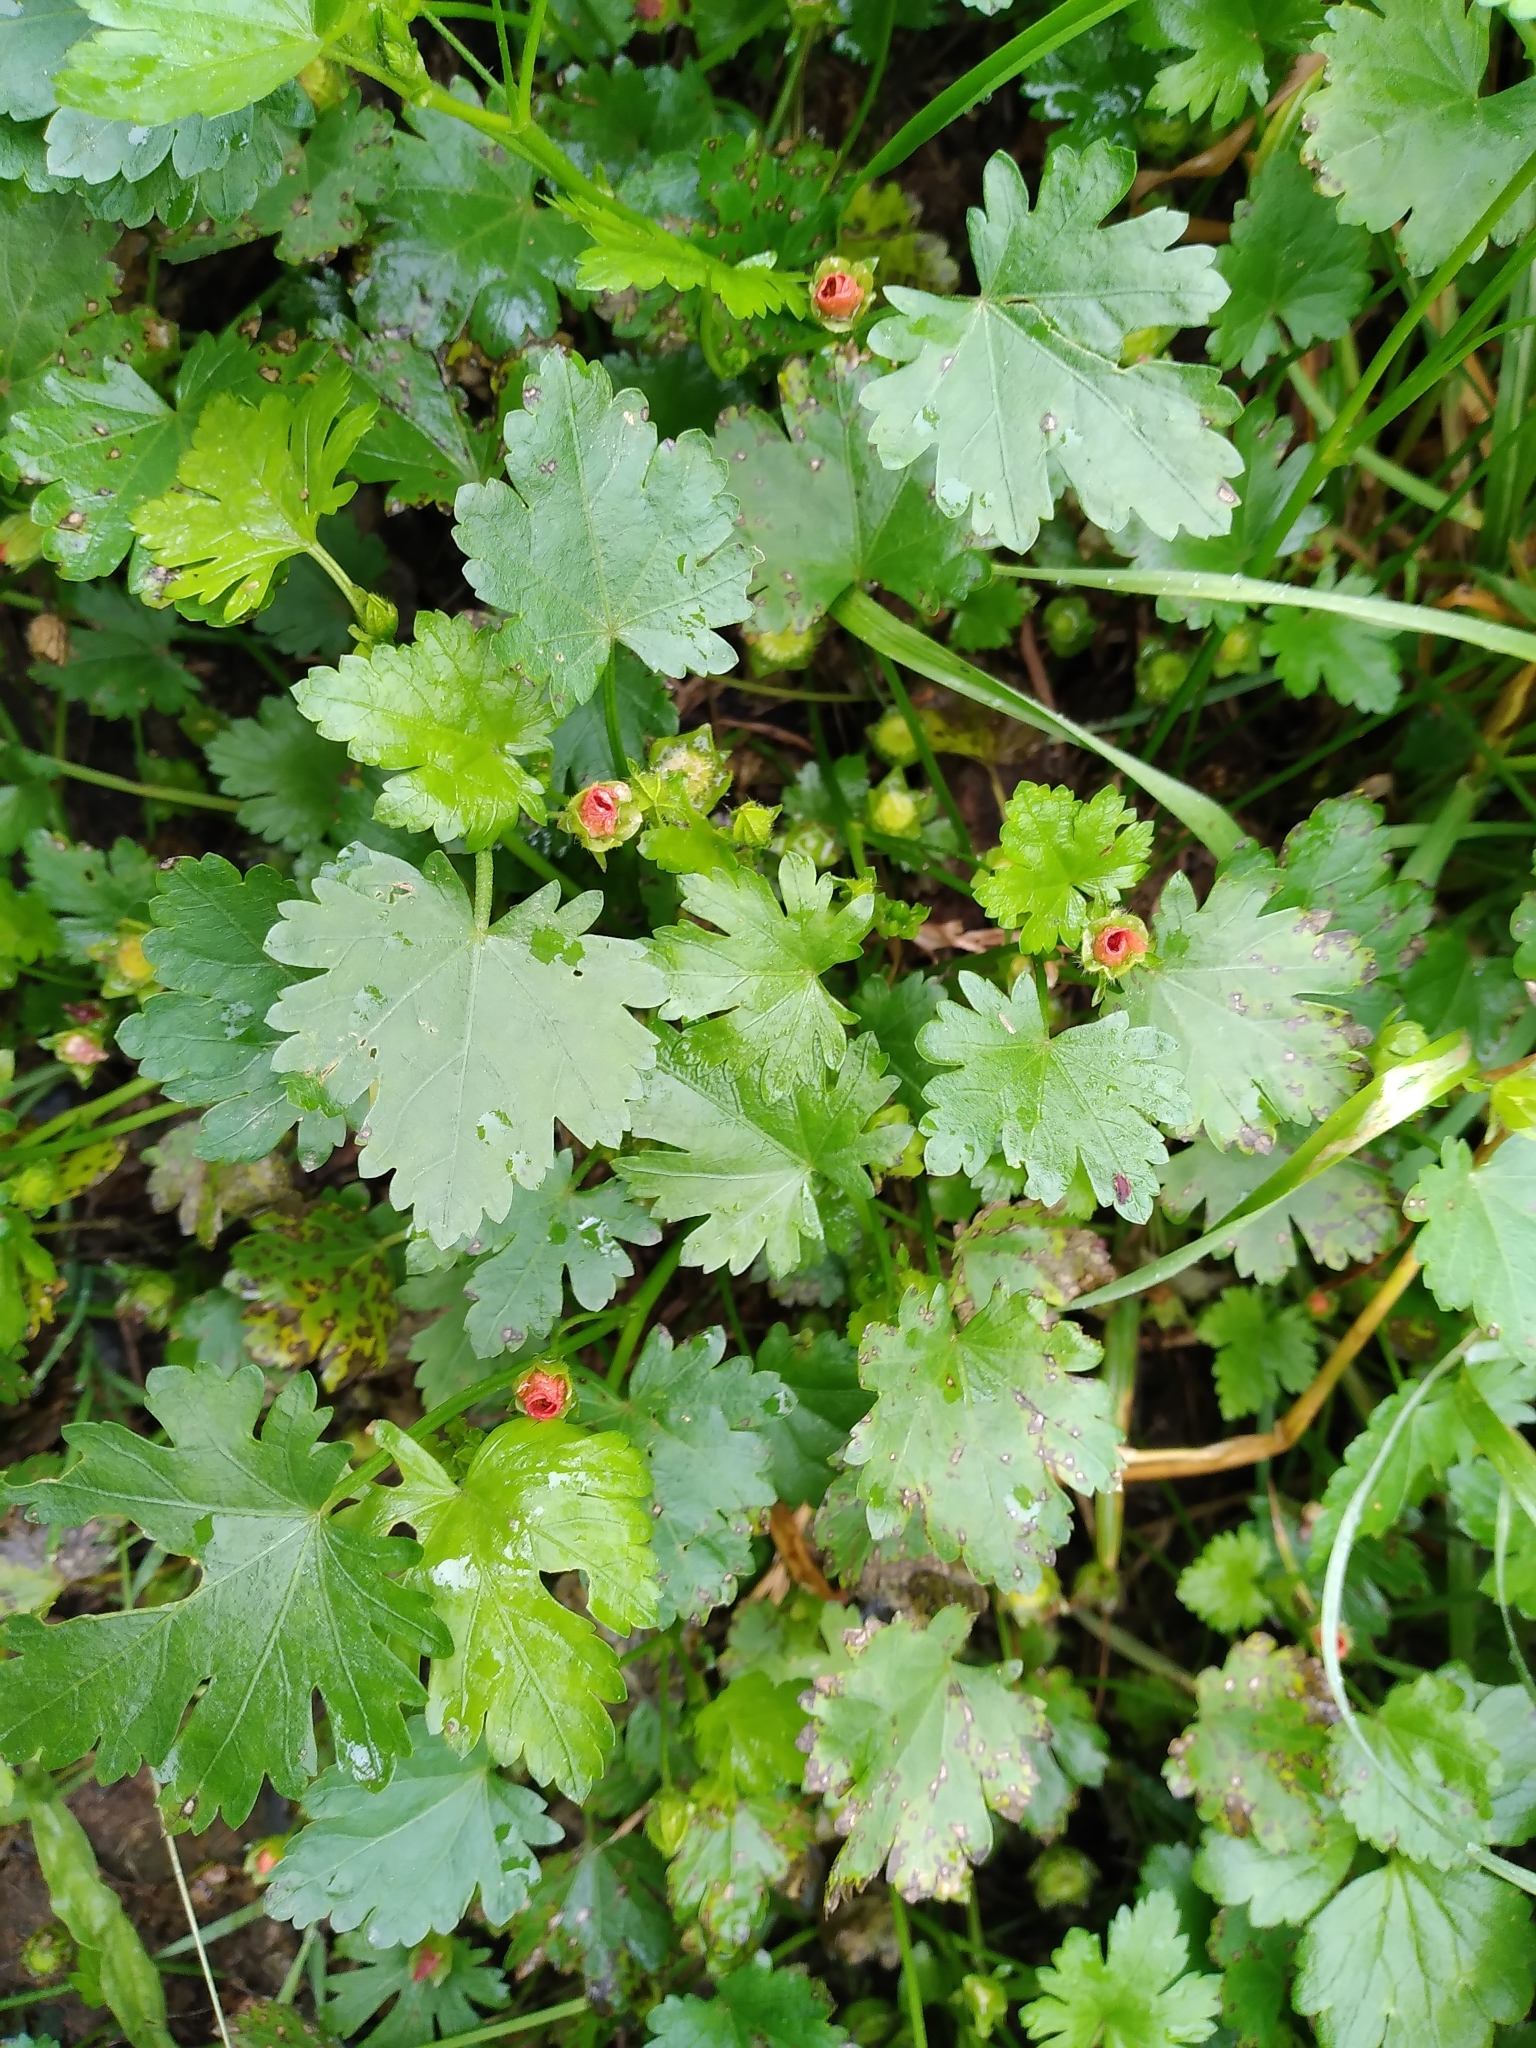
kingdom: Plantae
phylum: Tracheophyta
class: Magnoliopsida
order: Malvales
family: Malvaceae
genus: Modiola
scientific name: Modiola caroliniana
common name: Carolina bristlemallow
